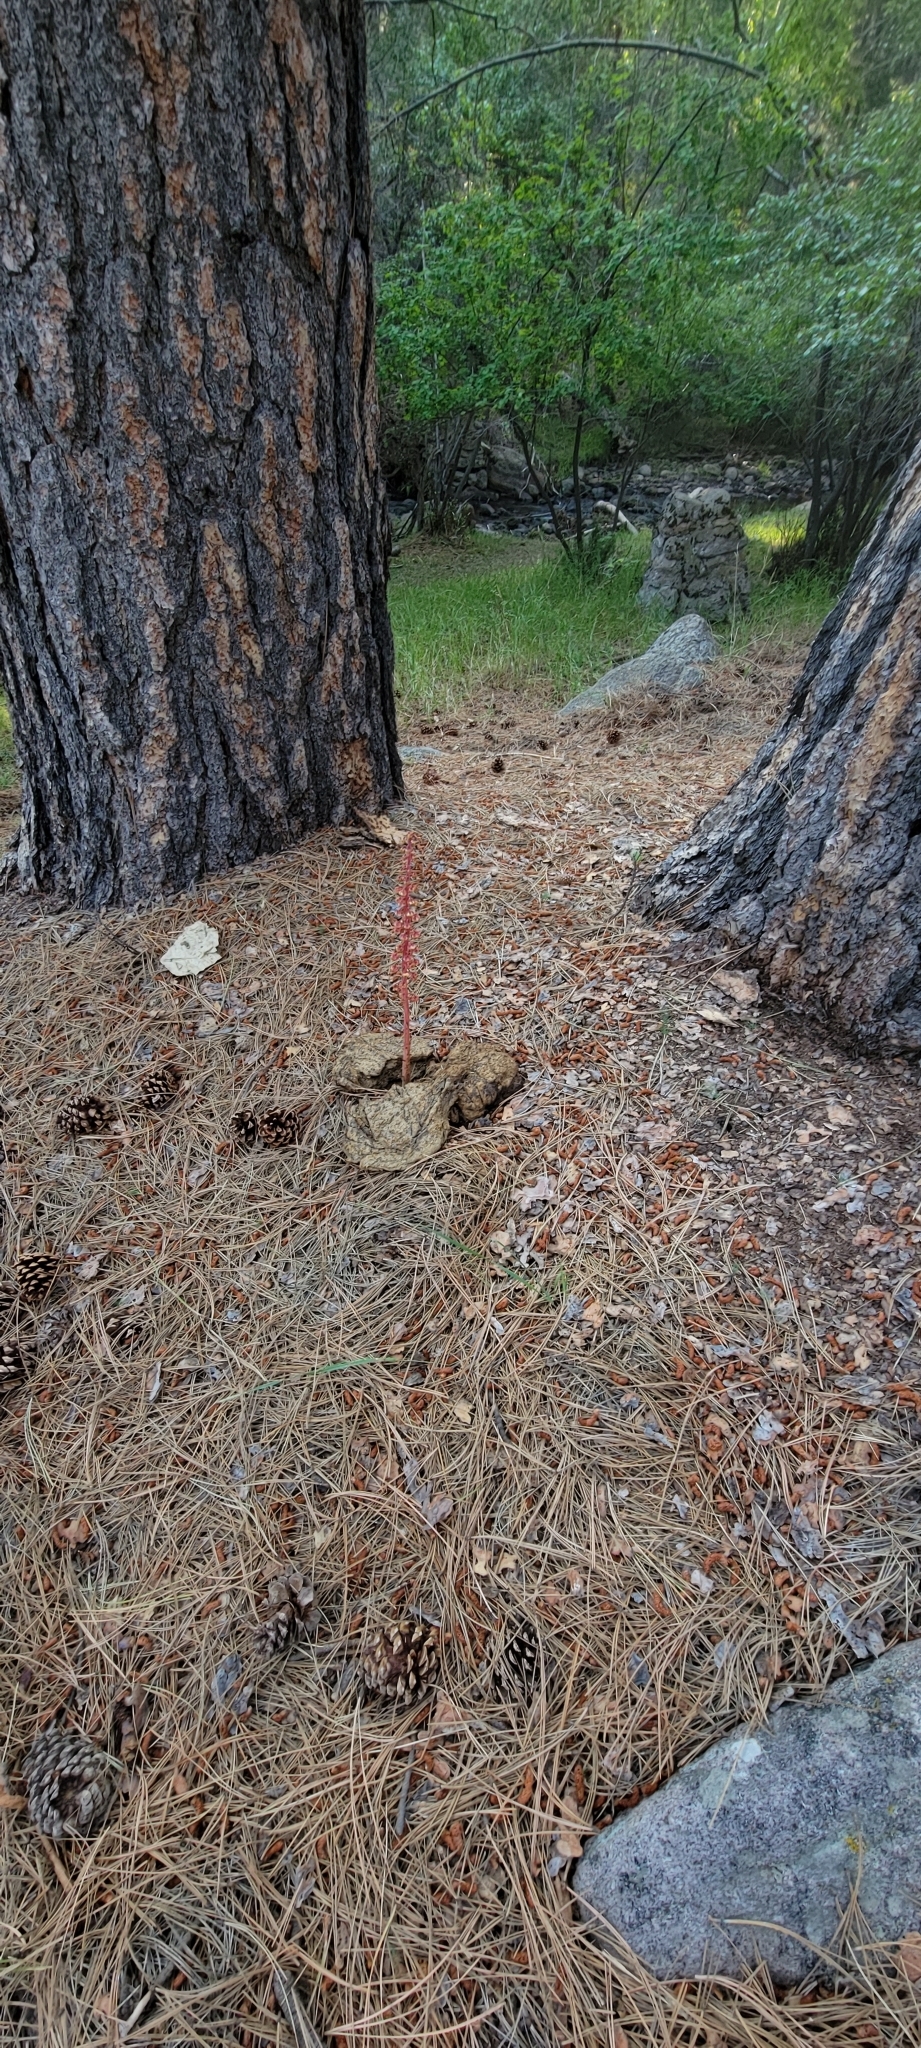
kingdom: Plantae
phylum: Tracheophyta
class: Magnoliopsida
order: Ericales
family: Ericaceae
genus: Pterospora
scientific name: Pterospora andromedea
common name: Giant bird's-nest
